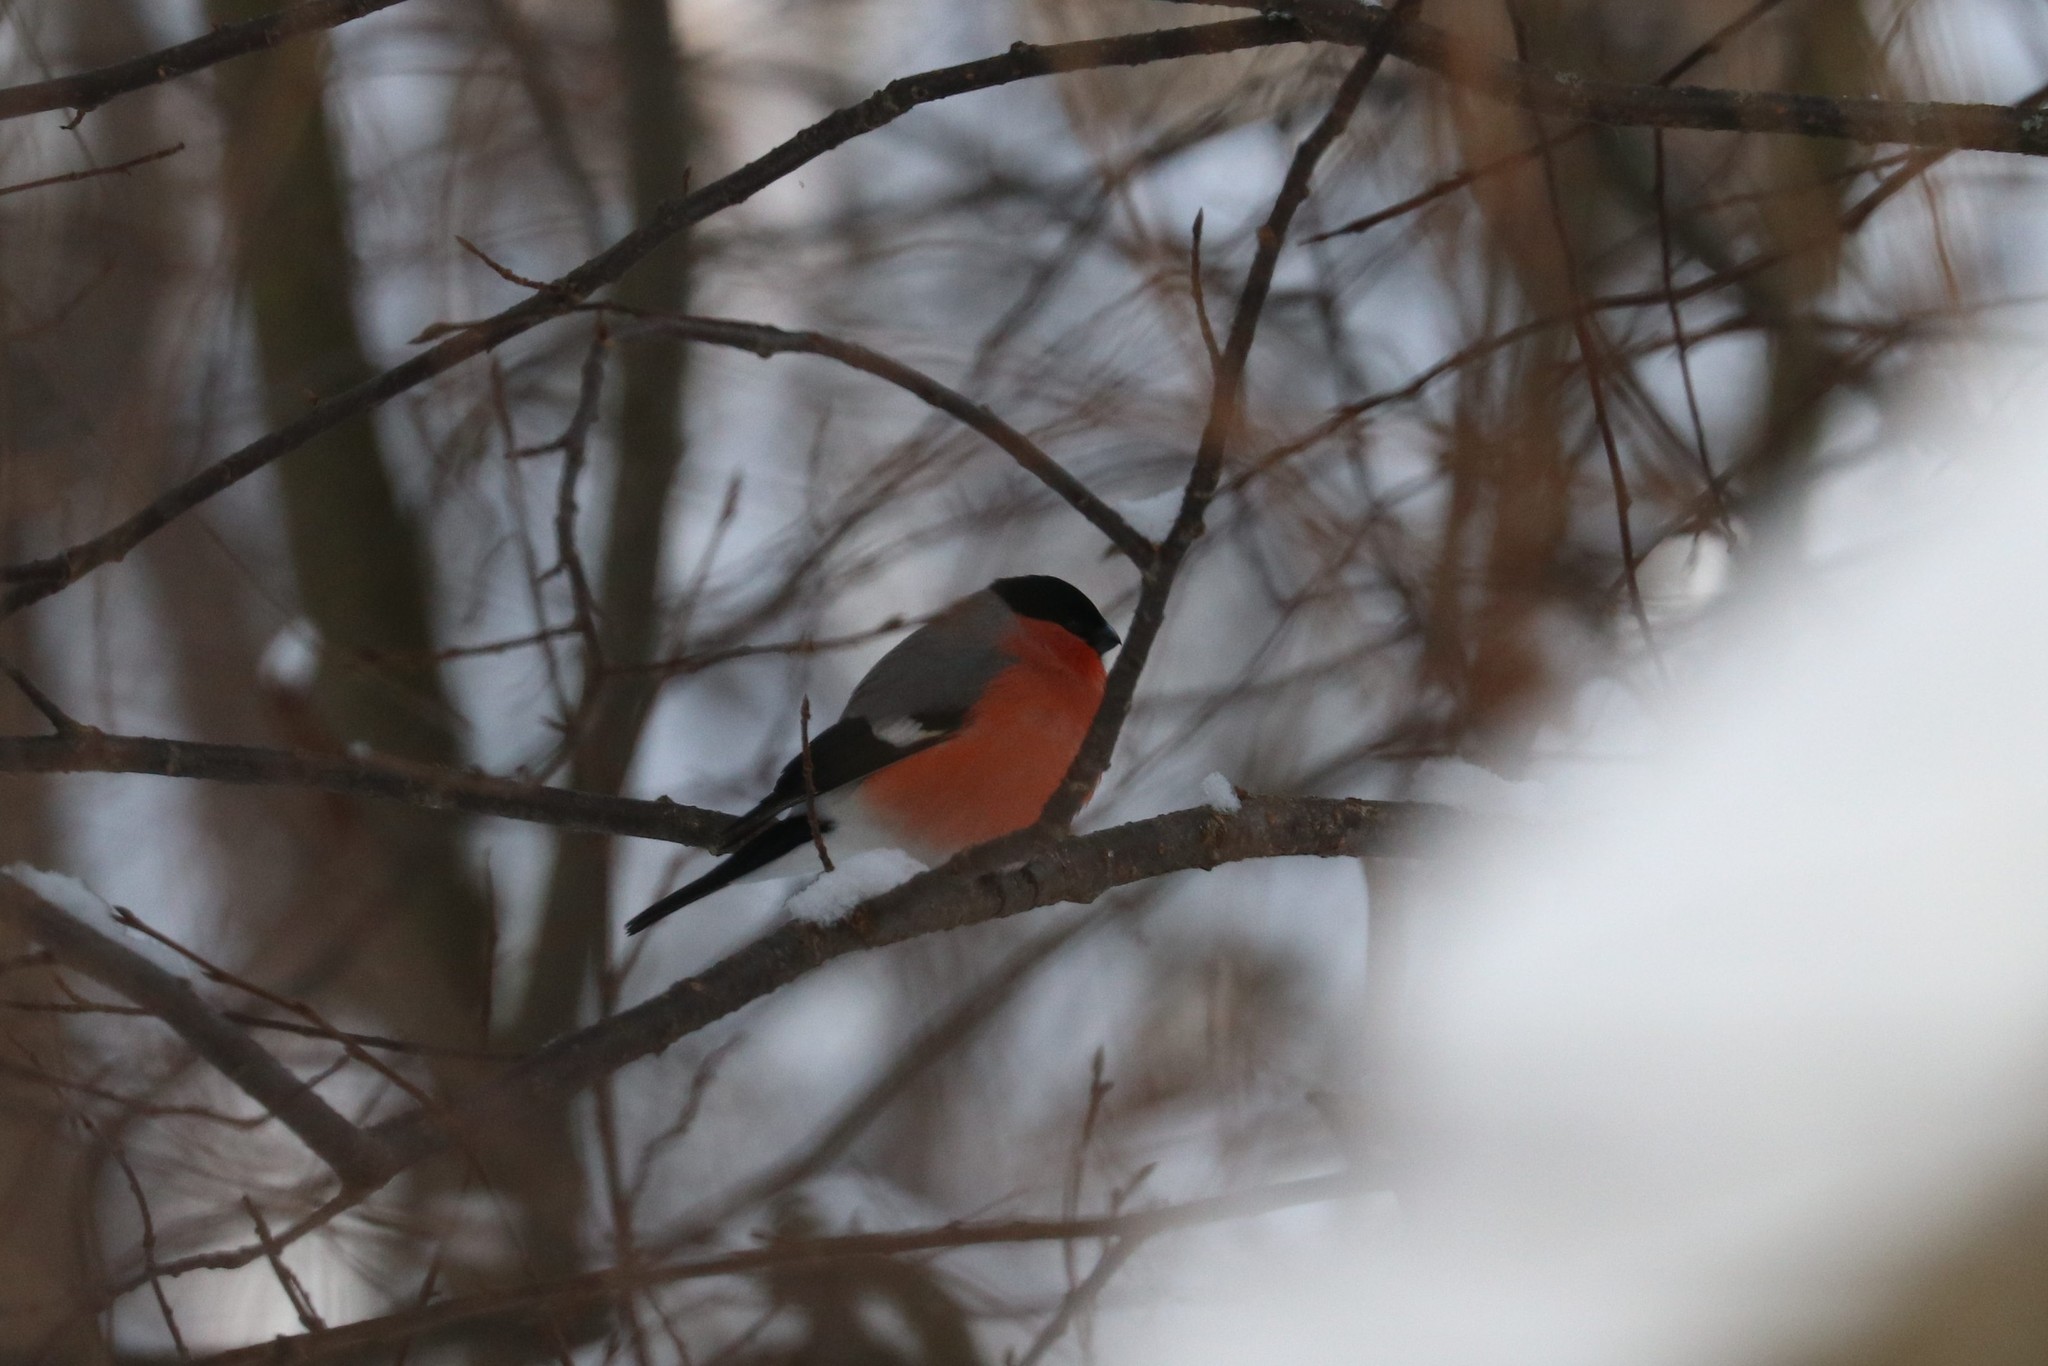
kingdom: Animalia
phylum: Chordata
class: Aves
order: Passeriformes
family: Fringillidae
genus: Pyrrhula
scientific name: Pyrrhula pyrrhula
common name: Eurasian bullfinch
